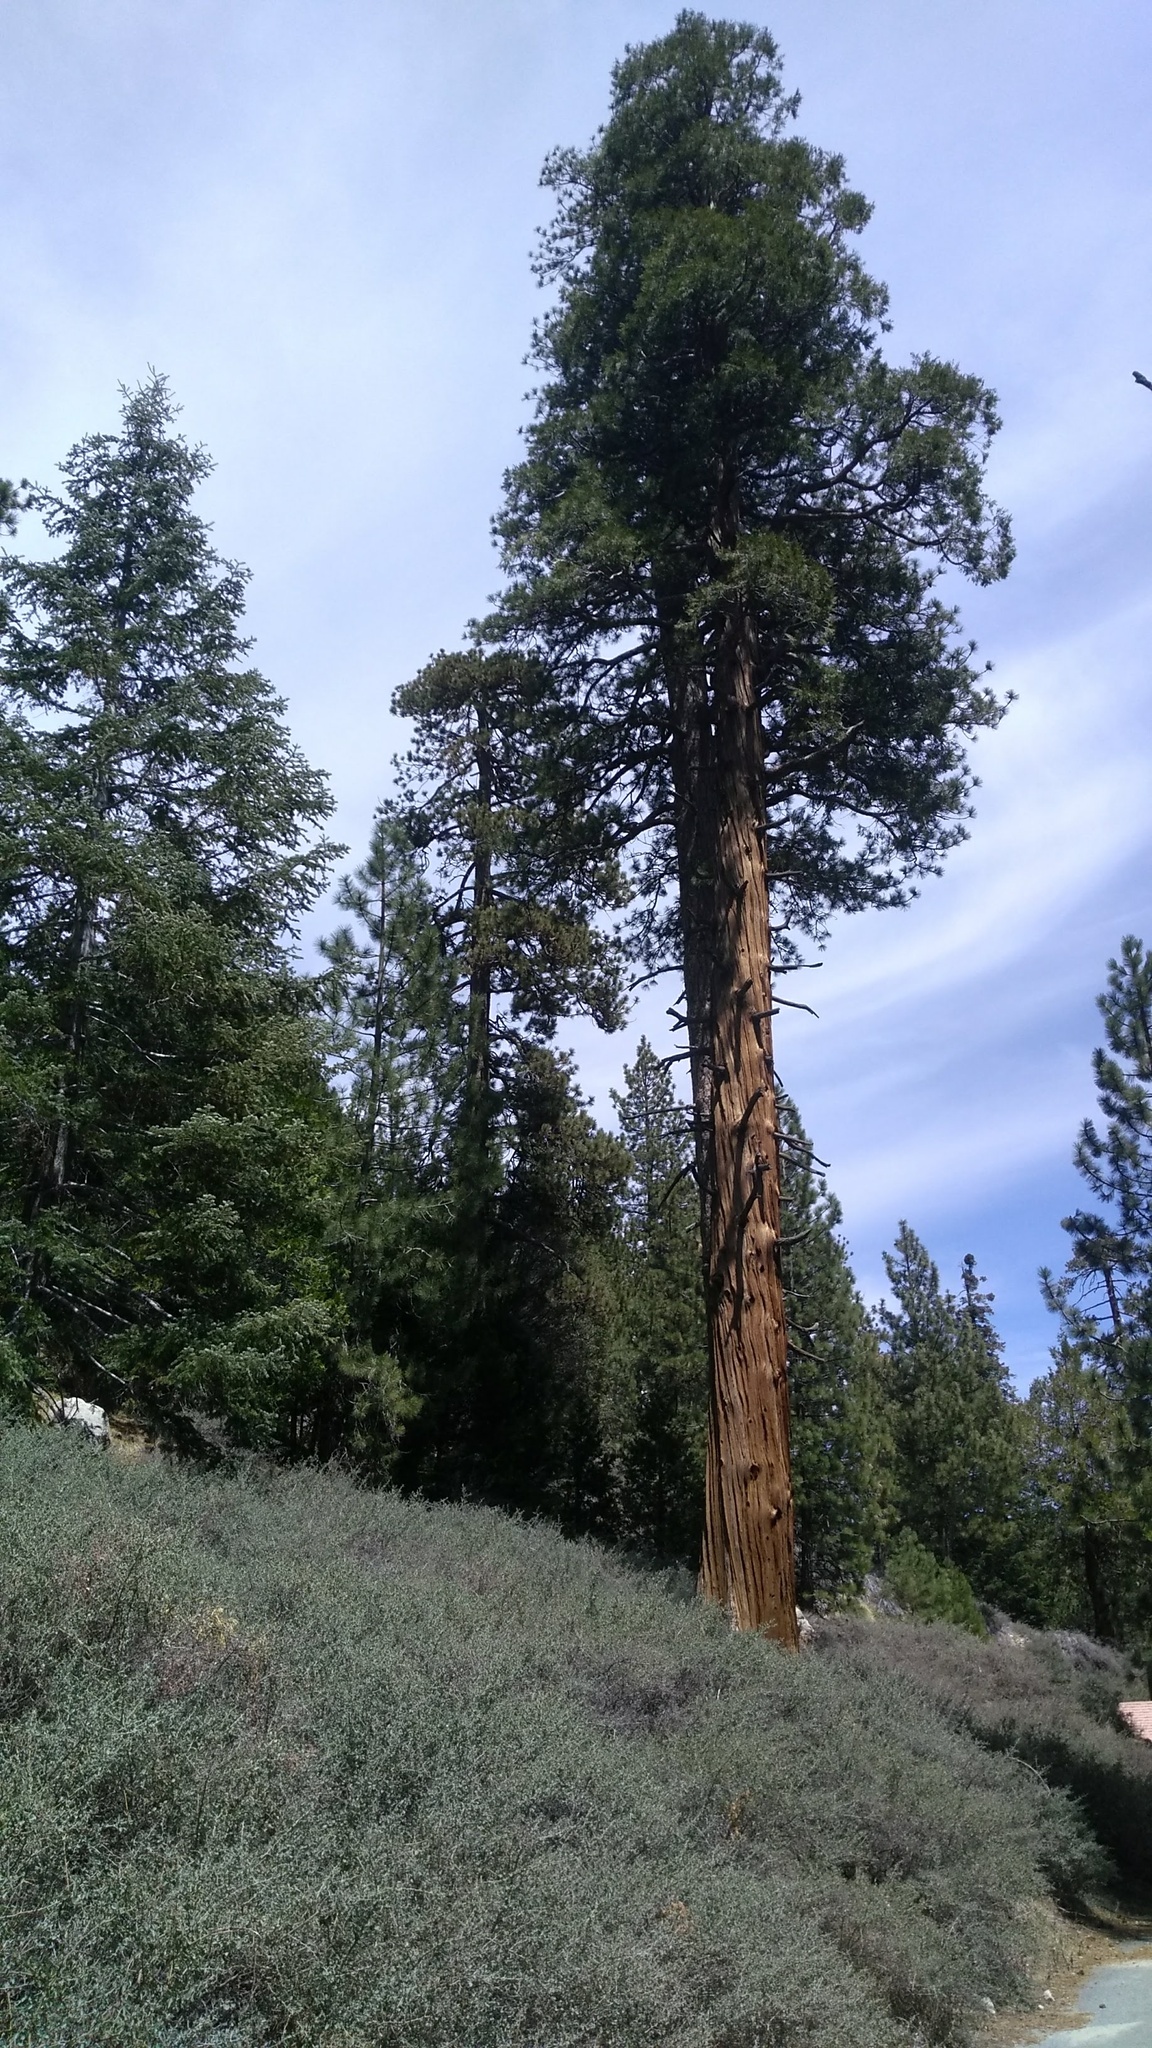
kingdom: Plantae
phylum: Tracheophyta
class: Pinopsida
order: Pinales
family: Cupressaceae
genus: Calocedrus
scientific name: Calocedrus decurrens
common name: Californian incense-cedar
